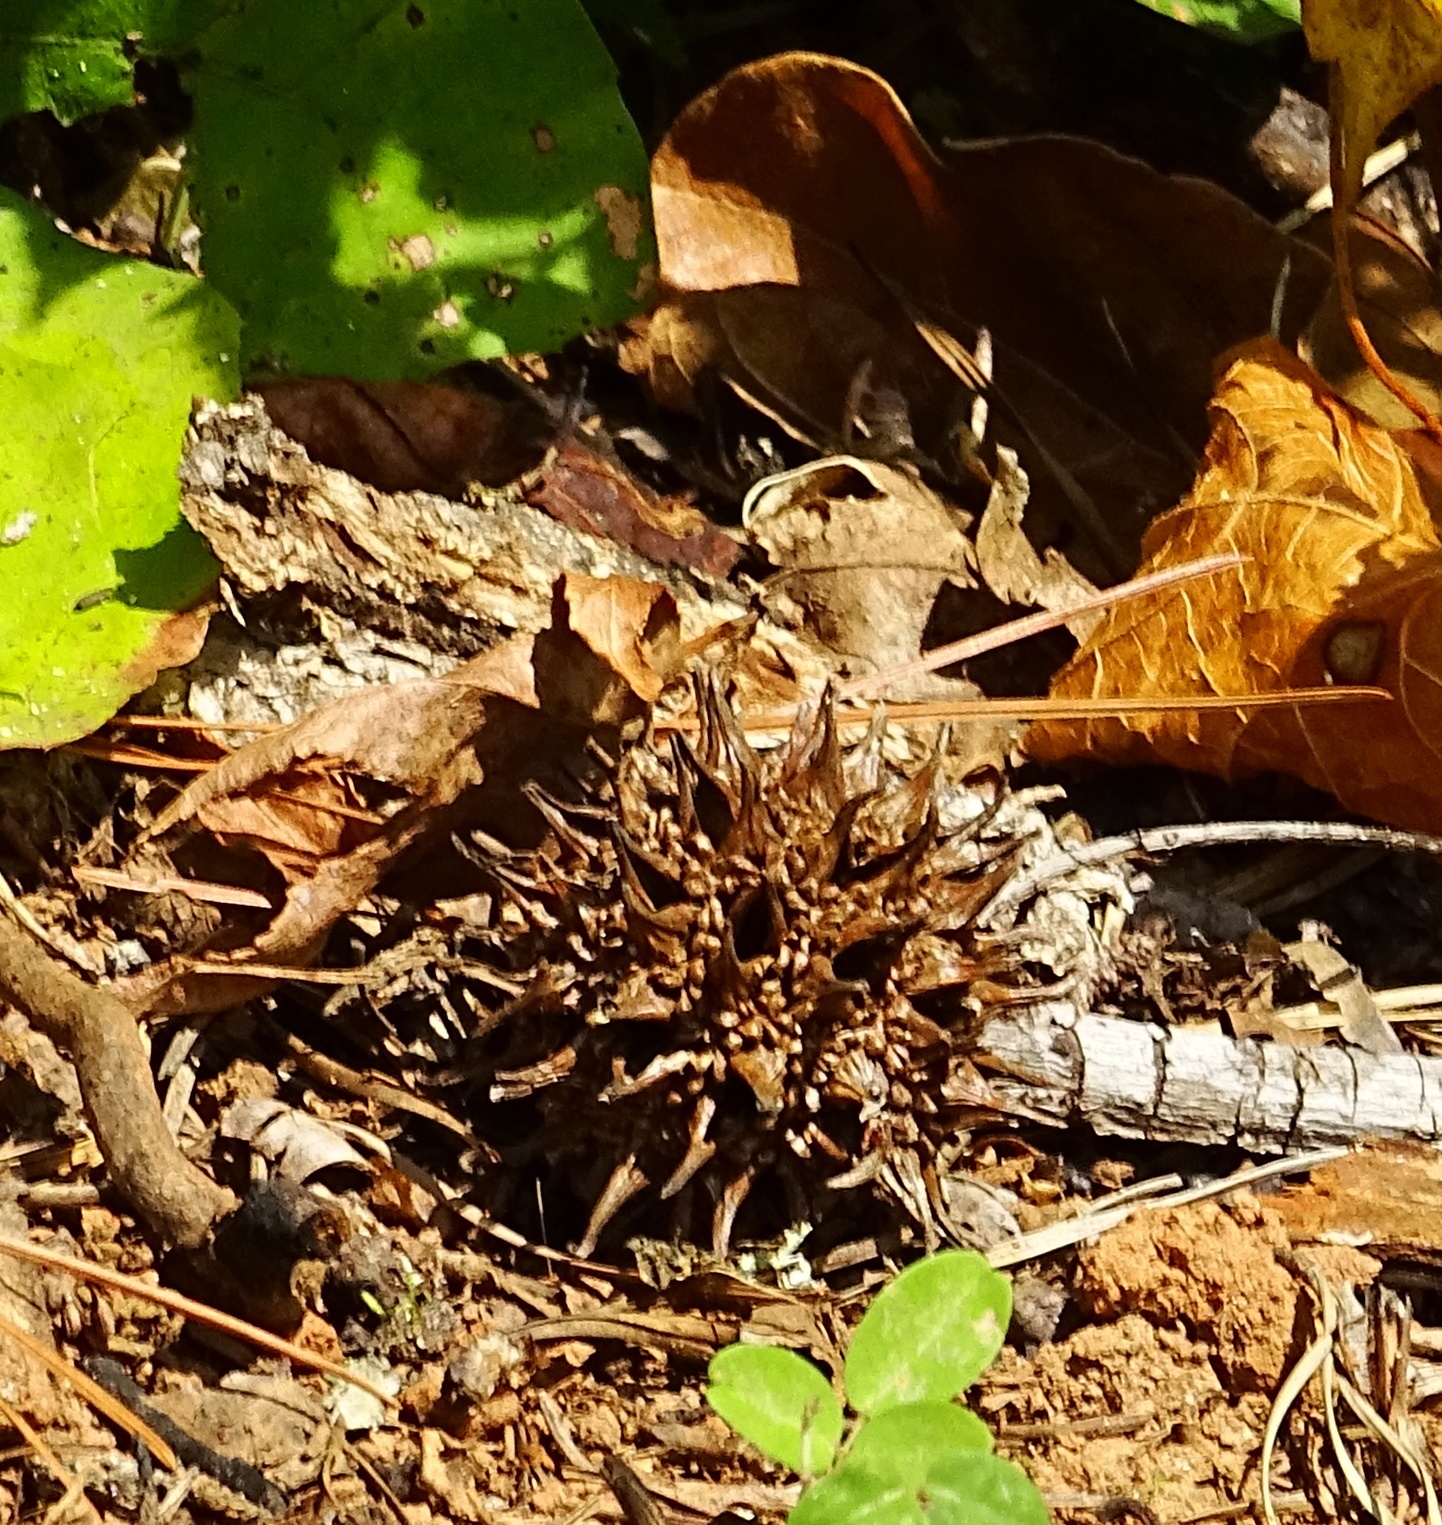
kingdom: Plantae
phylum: Tracheophyta
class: Magnoliopsida
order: Saxifragales
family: Altingiaceae
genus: Liquidambar
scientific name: Liquidambar styraciflua
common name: Sweet gum
